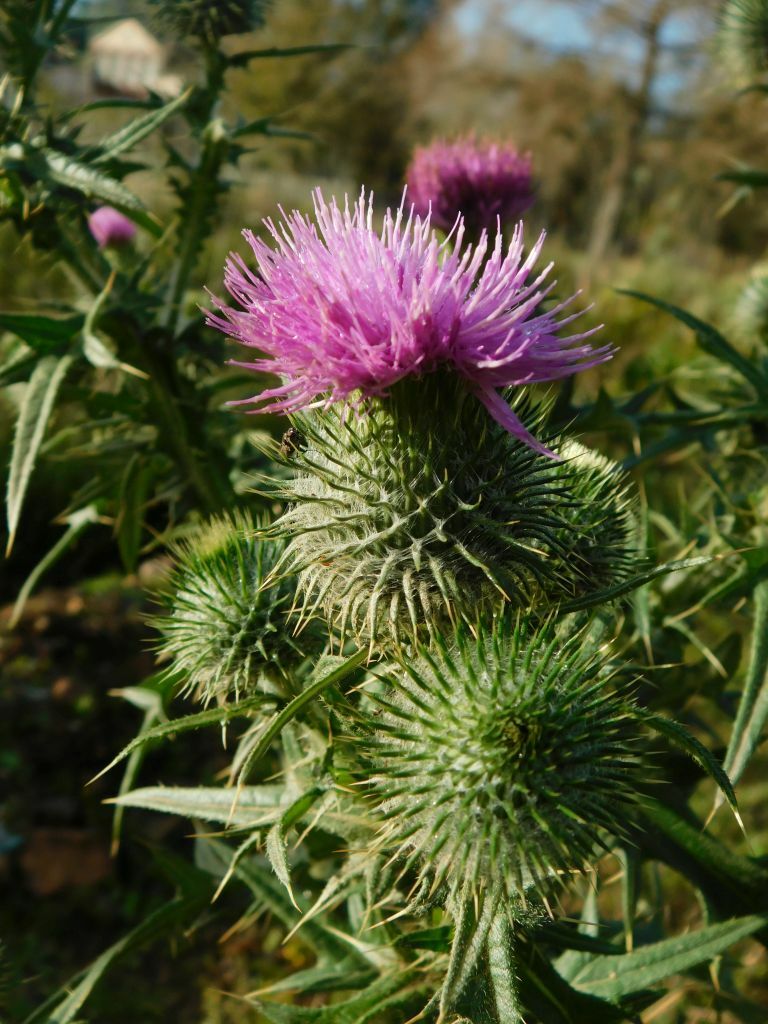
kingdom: Plantae
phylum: Tracheophyta
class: Magnoliopsida
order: Asterales
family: Asteraceae
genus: Cirsium
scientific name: Cirsium vulgare
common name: Bull thistle
